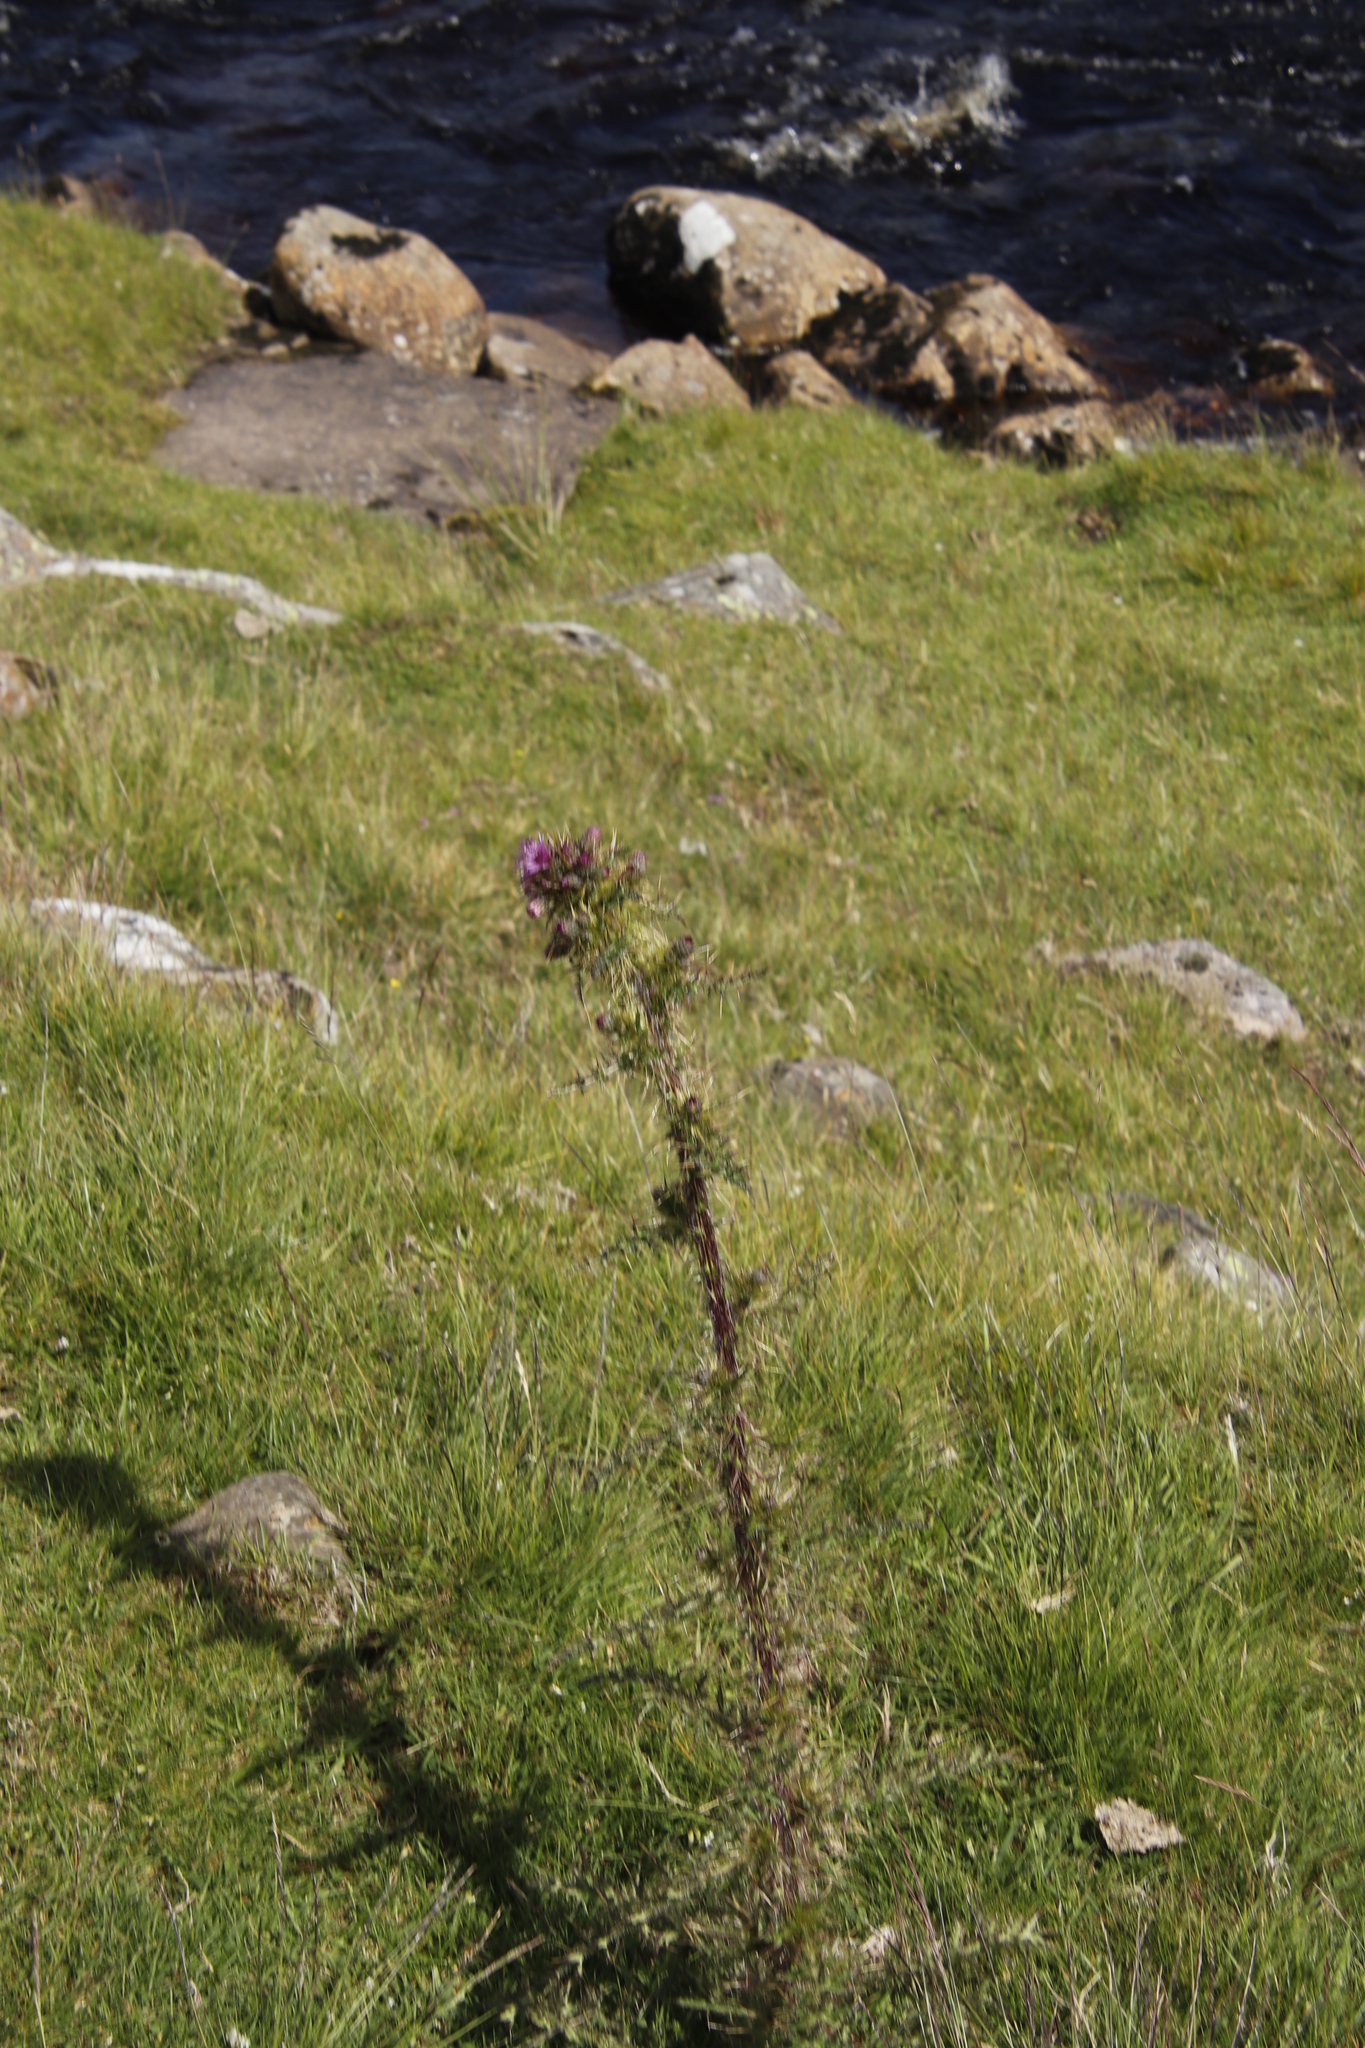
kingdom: Plantae
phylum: Tracheophyta
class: Magnoliopsida
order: Asterales
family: Asteraceae
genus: Cirsium
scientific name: Cirsium palustre
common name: Marsh thistle
